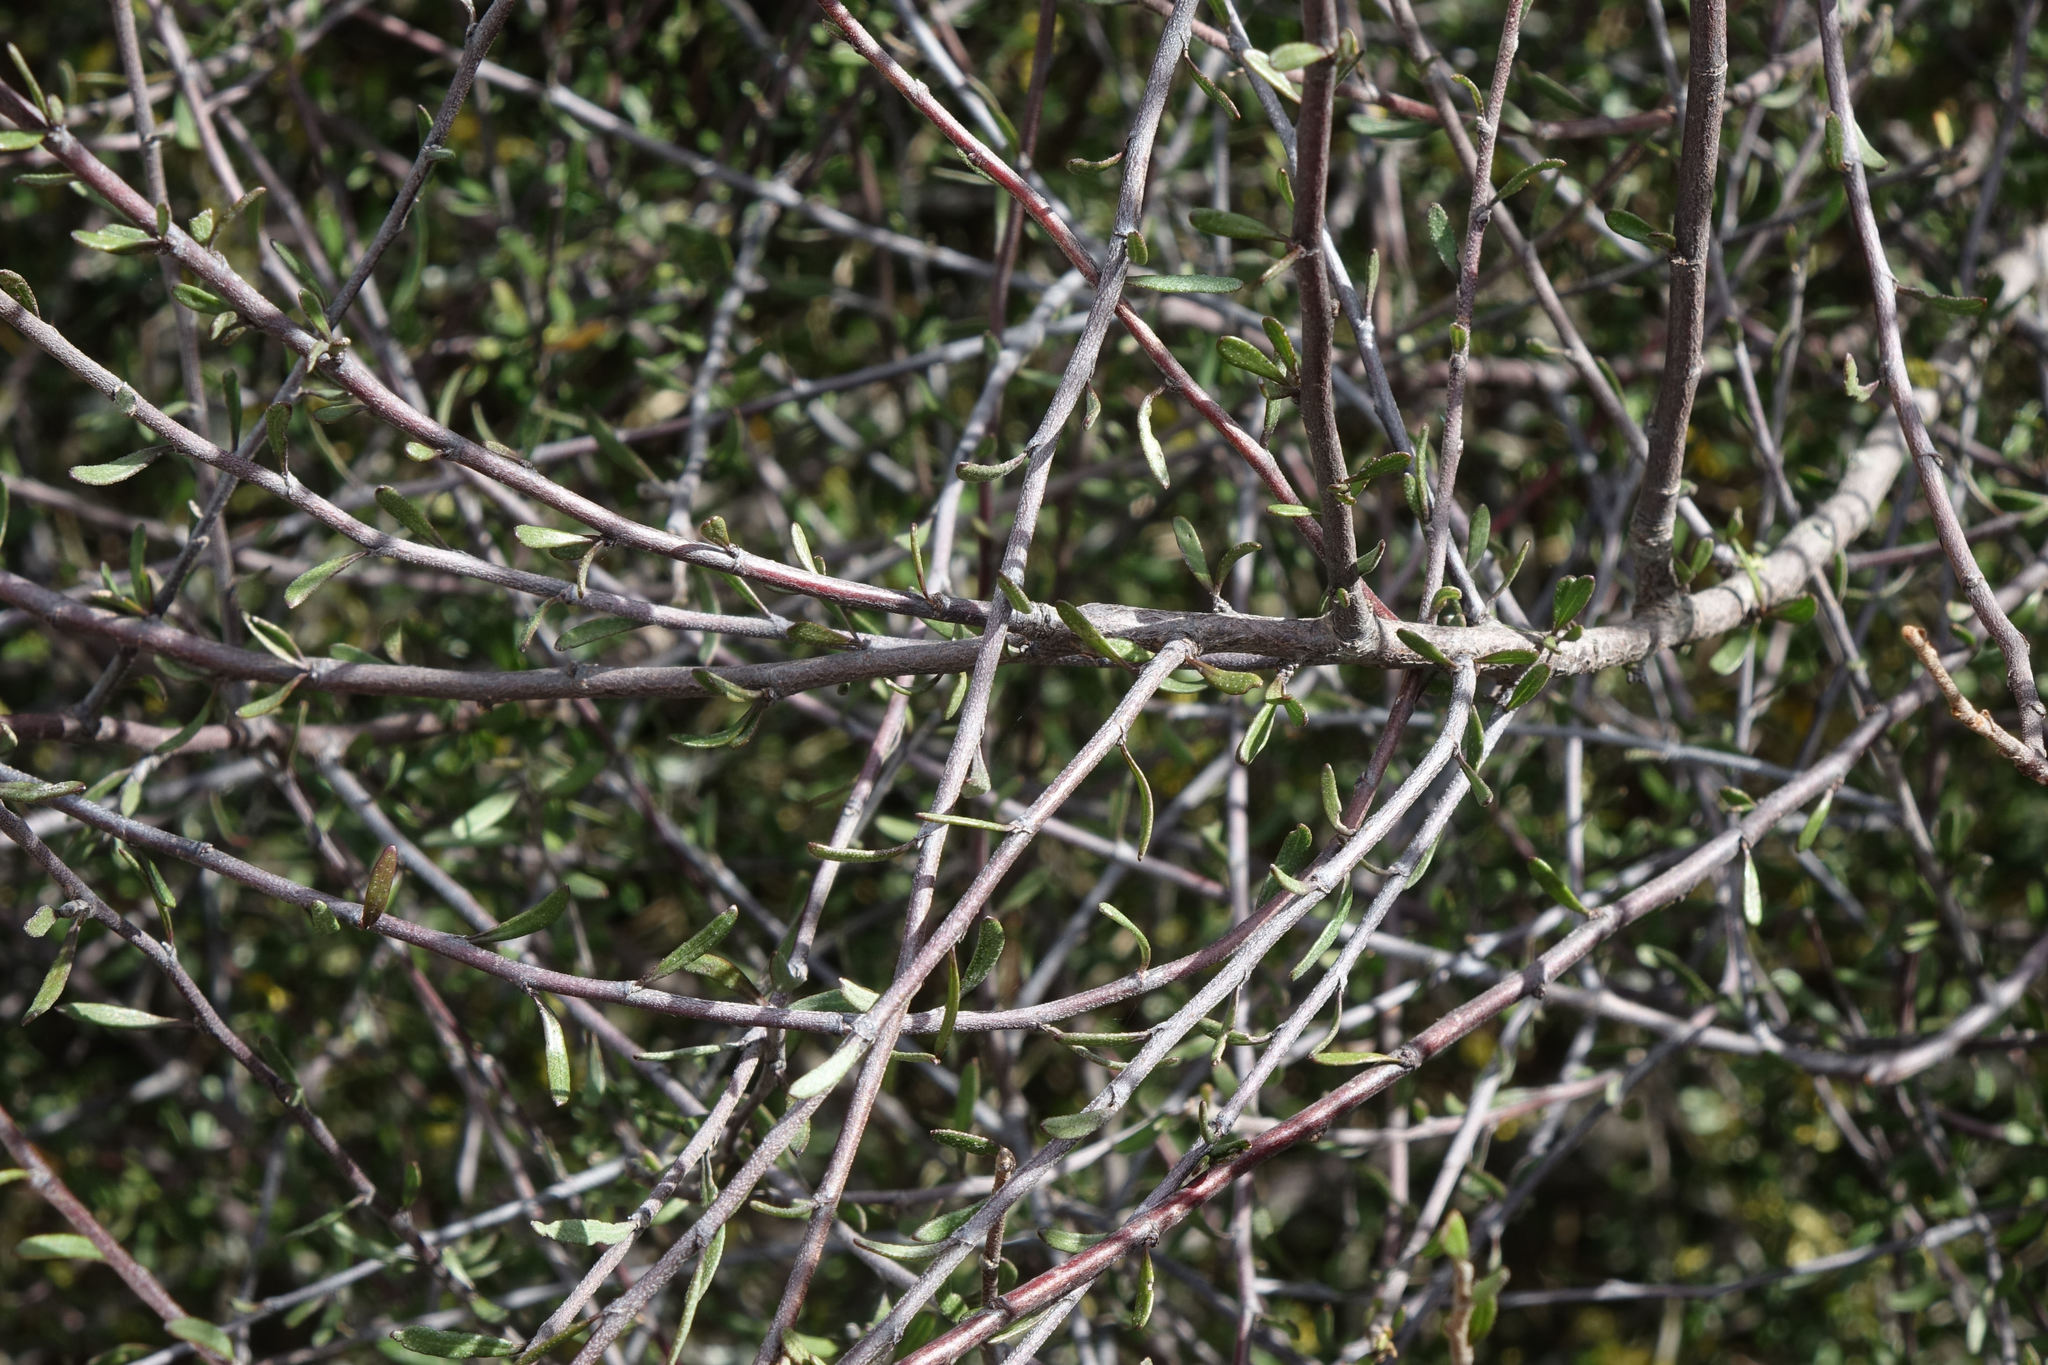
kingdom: Plantae
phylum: Tracheophyta
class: Magnoliopsida
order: Malvales
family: Malvaceae
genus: Plagianthus
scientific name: Plagianthus divaricatus
